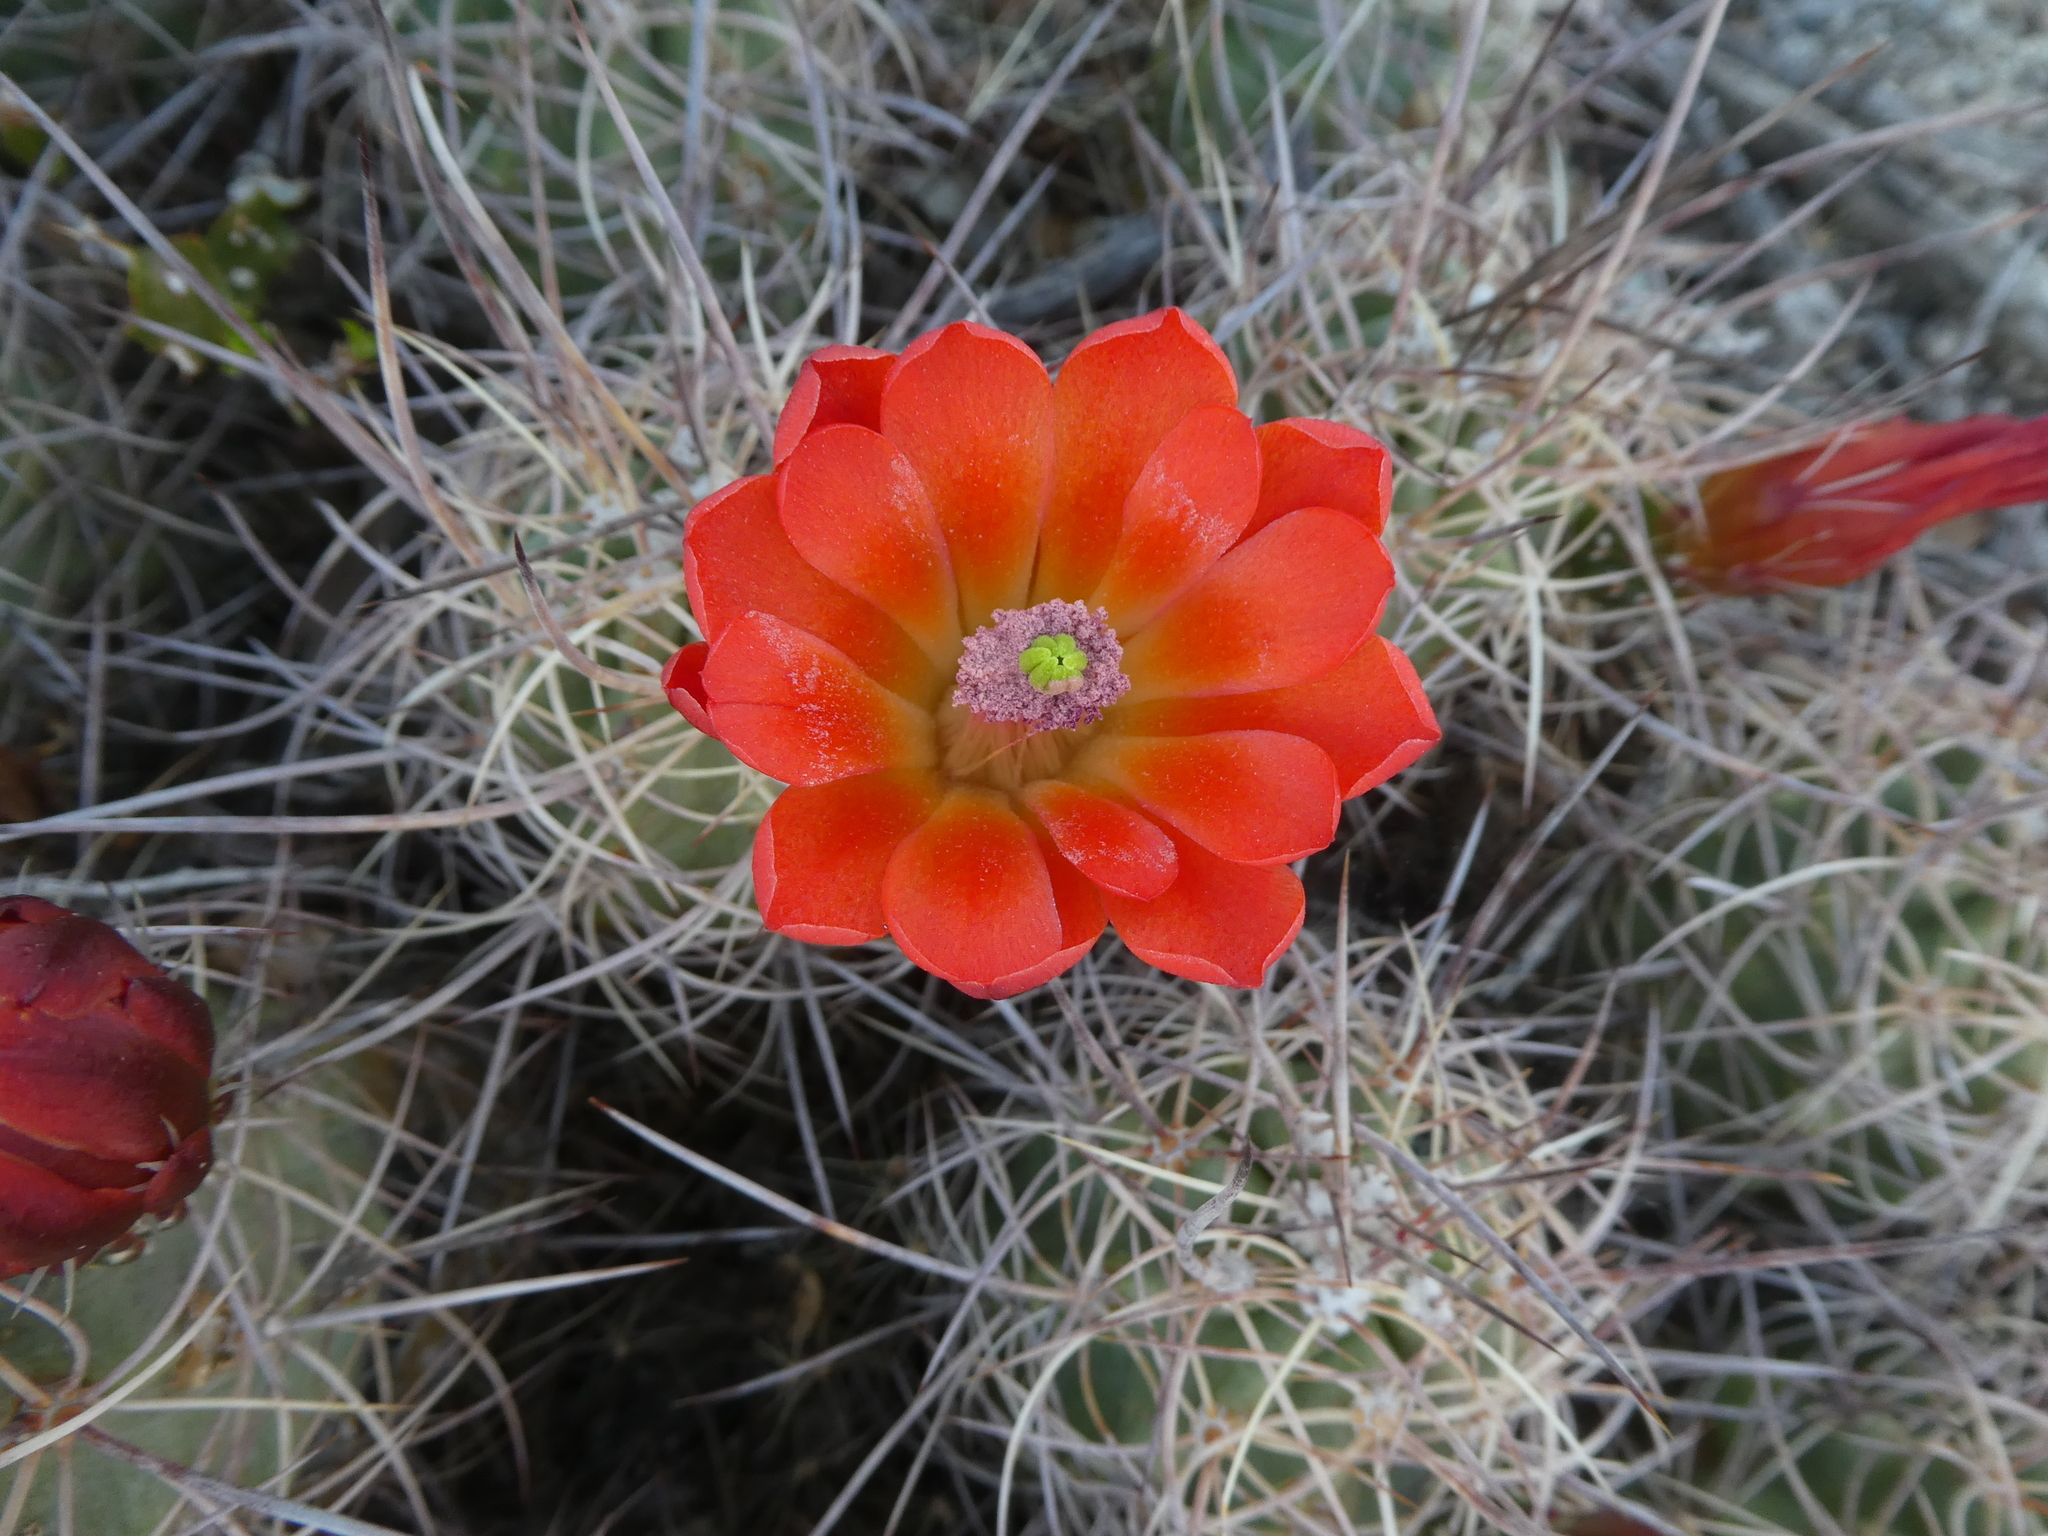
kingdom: Plantae
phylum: Tracheophyta
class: Magnoliopsida
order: Caryophyllales
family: Cactaceae
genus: Echinocereus
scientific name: Echinocereus triglochidiatus
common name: Claretcup hedgehog
